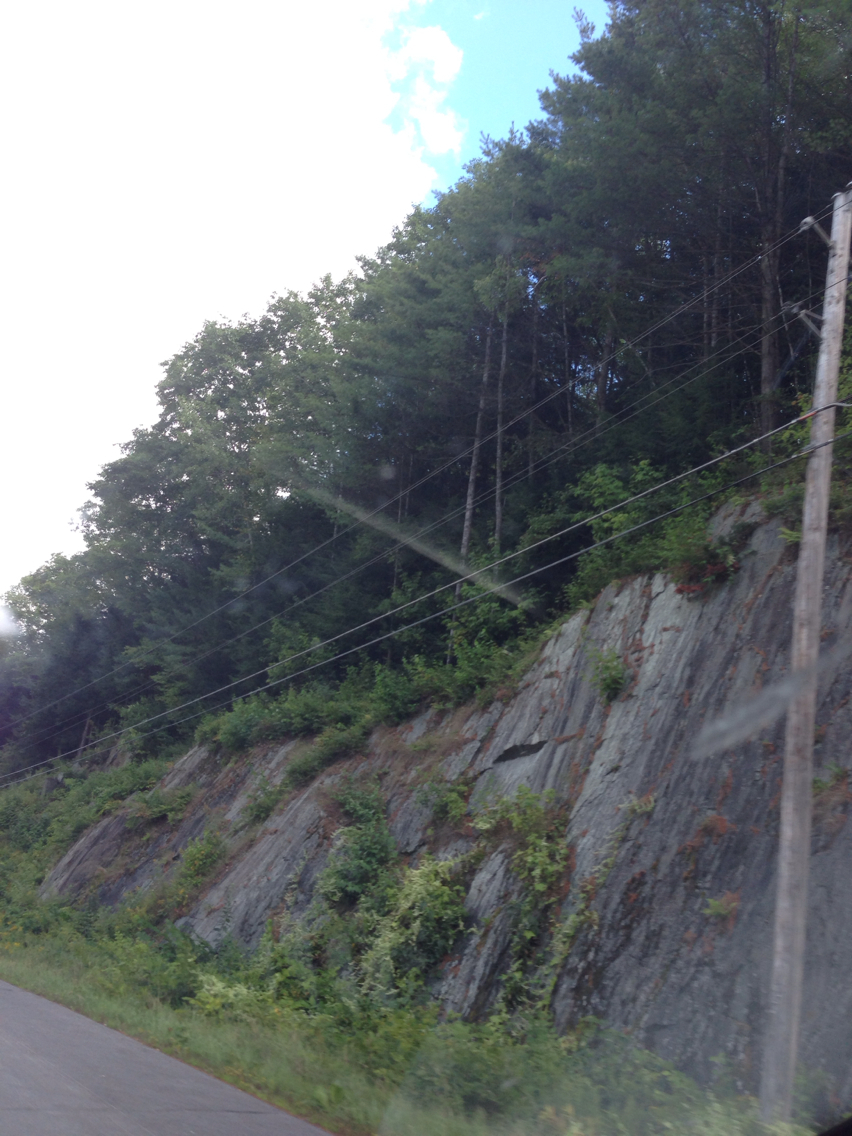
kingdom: Plantae
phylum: Tracheophyta
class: Pinopsida
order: Pinales
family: Pinaceae
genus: Pinus
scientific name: Pinus strobus
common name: Weymouth pine
